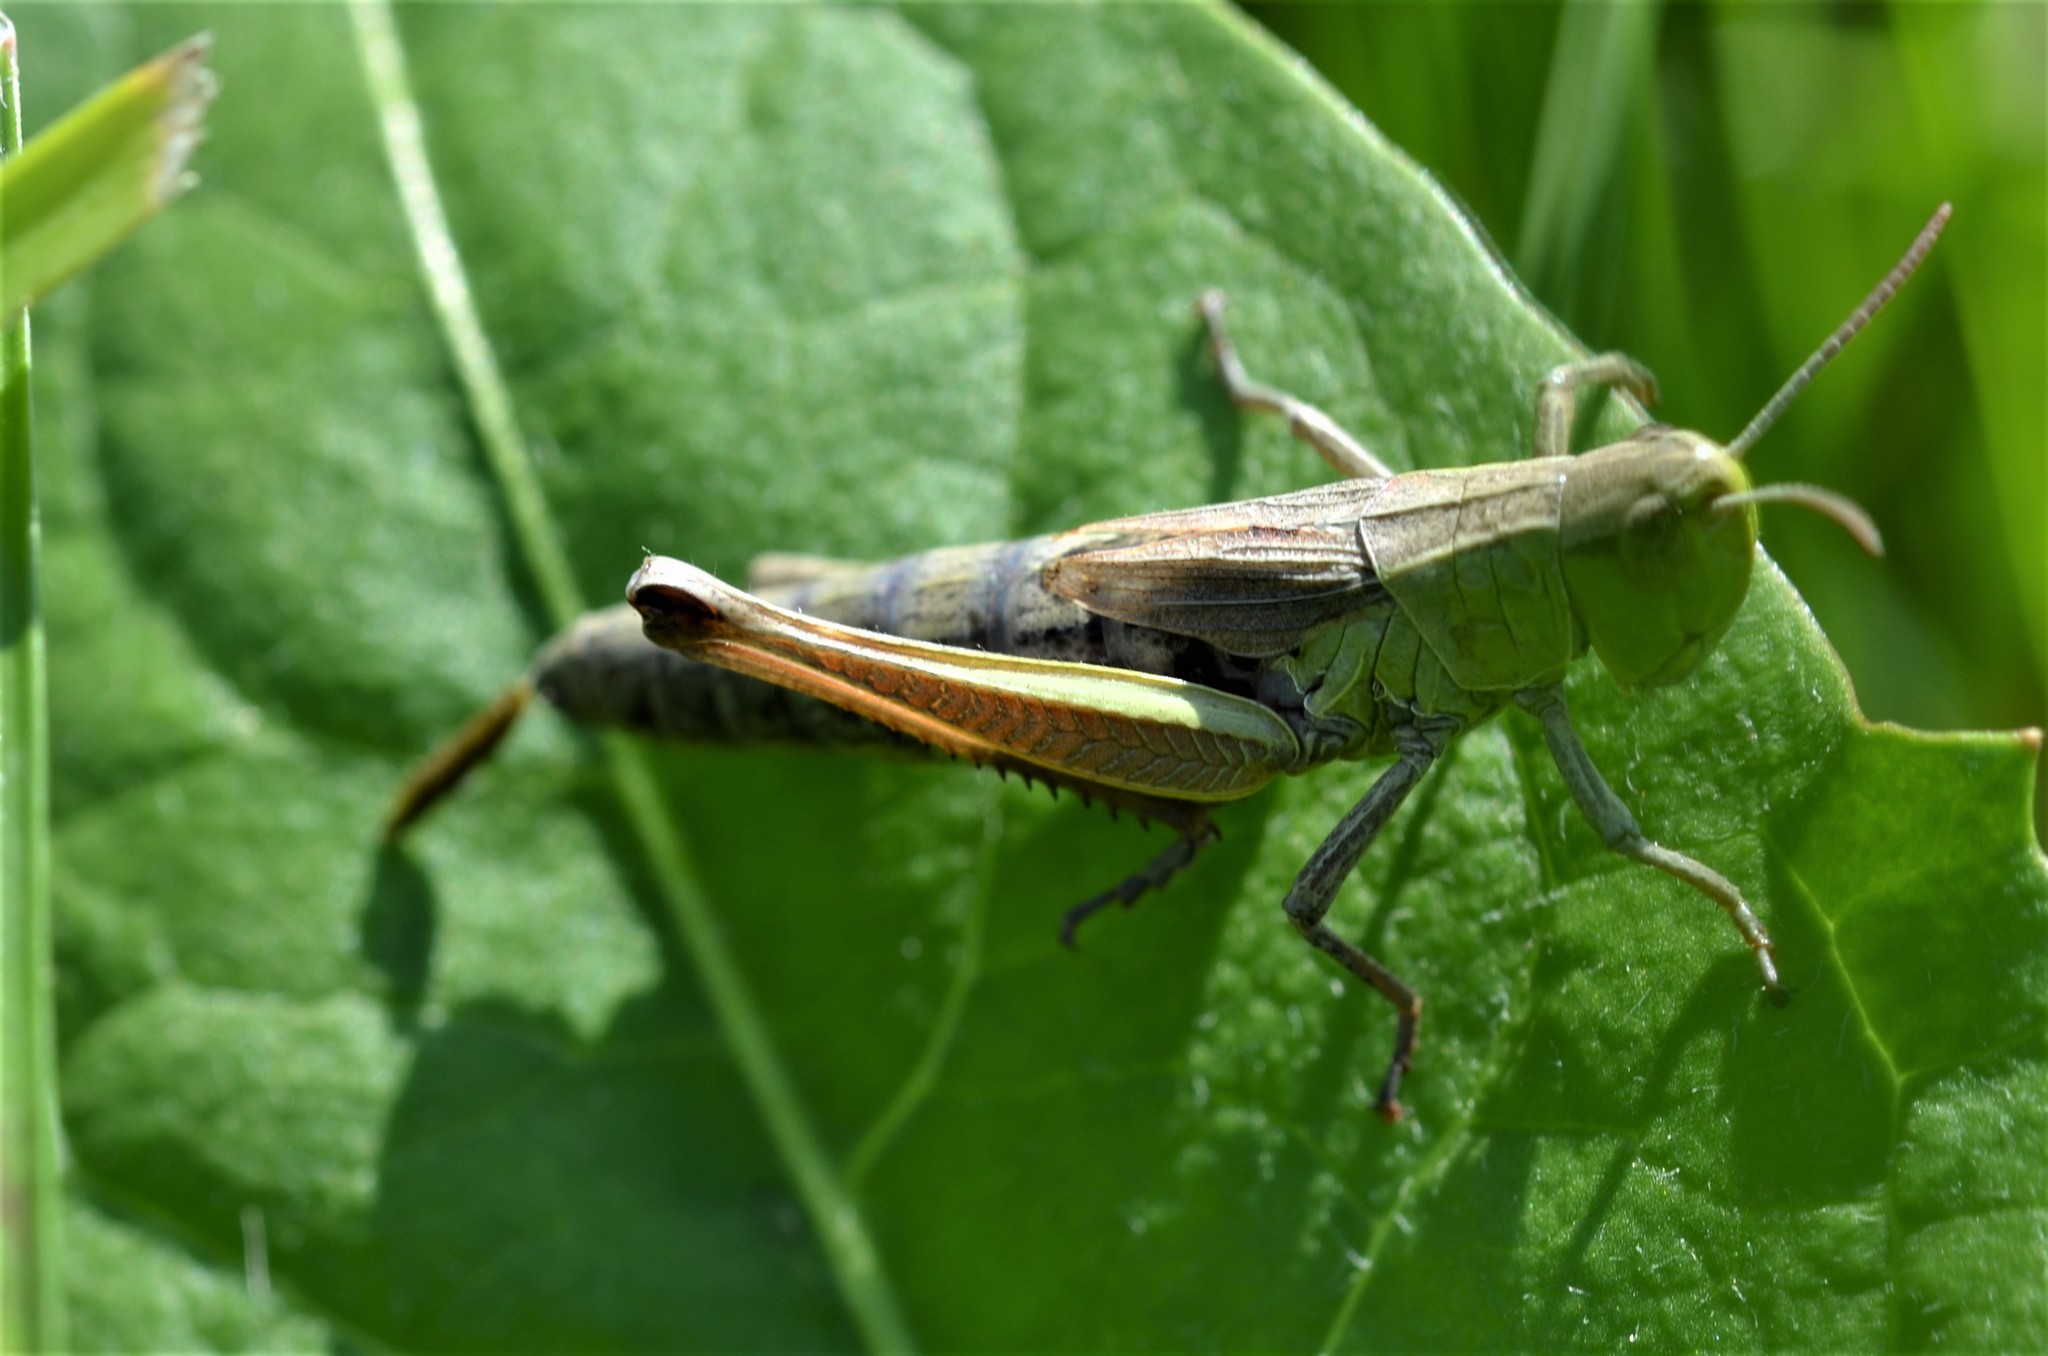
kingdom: Animalia
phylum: Arthropoda
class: Insecta
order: Orthoptera
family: Acrididae
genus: Pseudochorthippus
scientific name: Pseudochorthippus parallelus
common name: Meadow grasshopper
